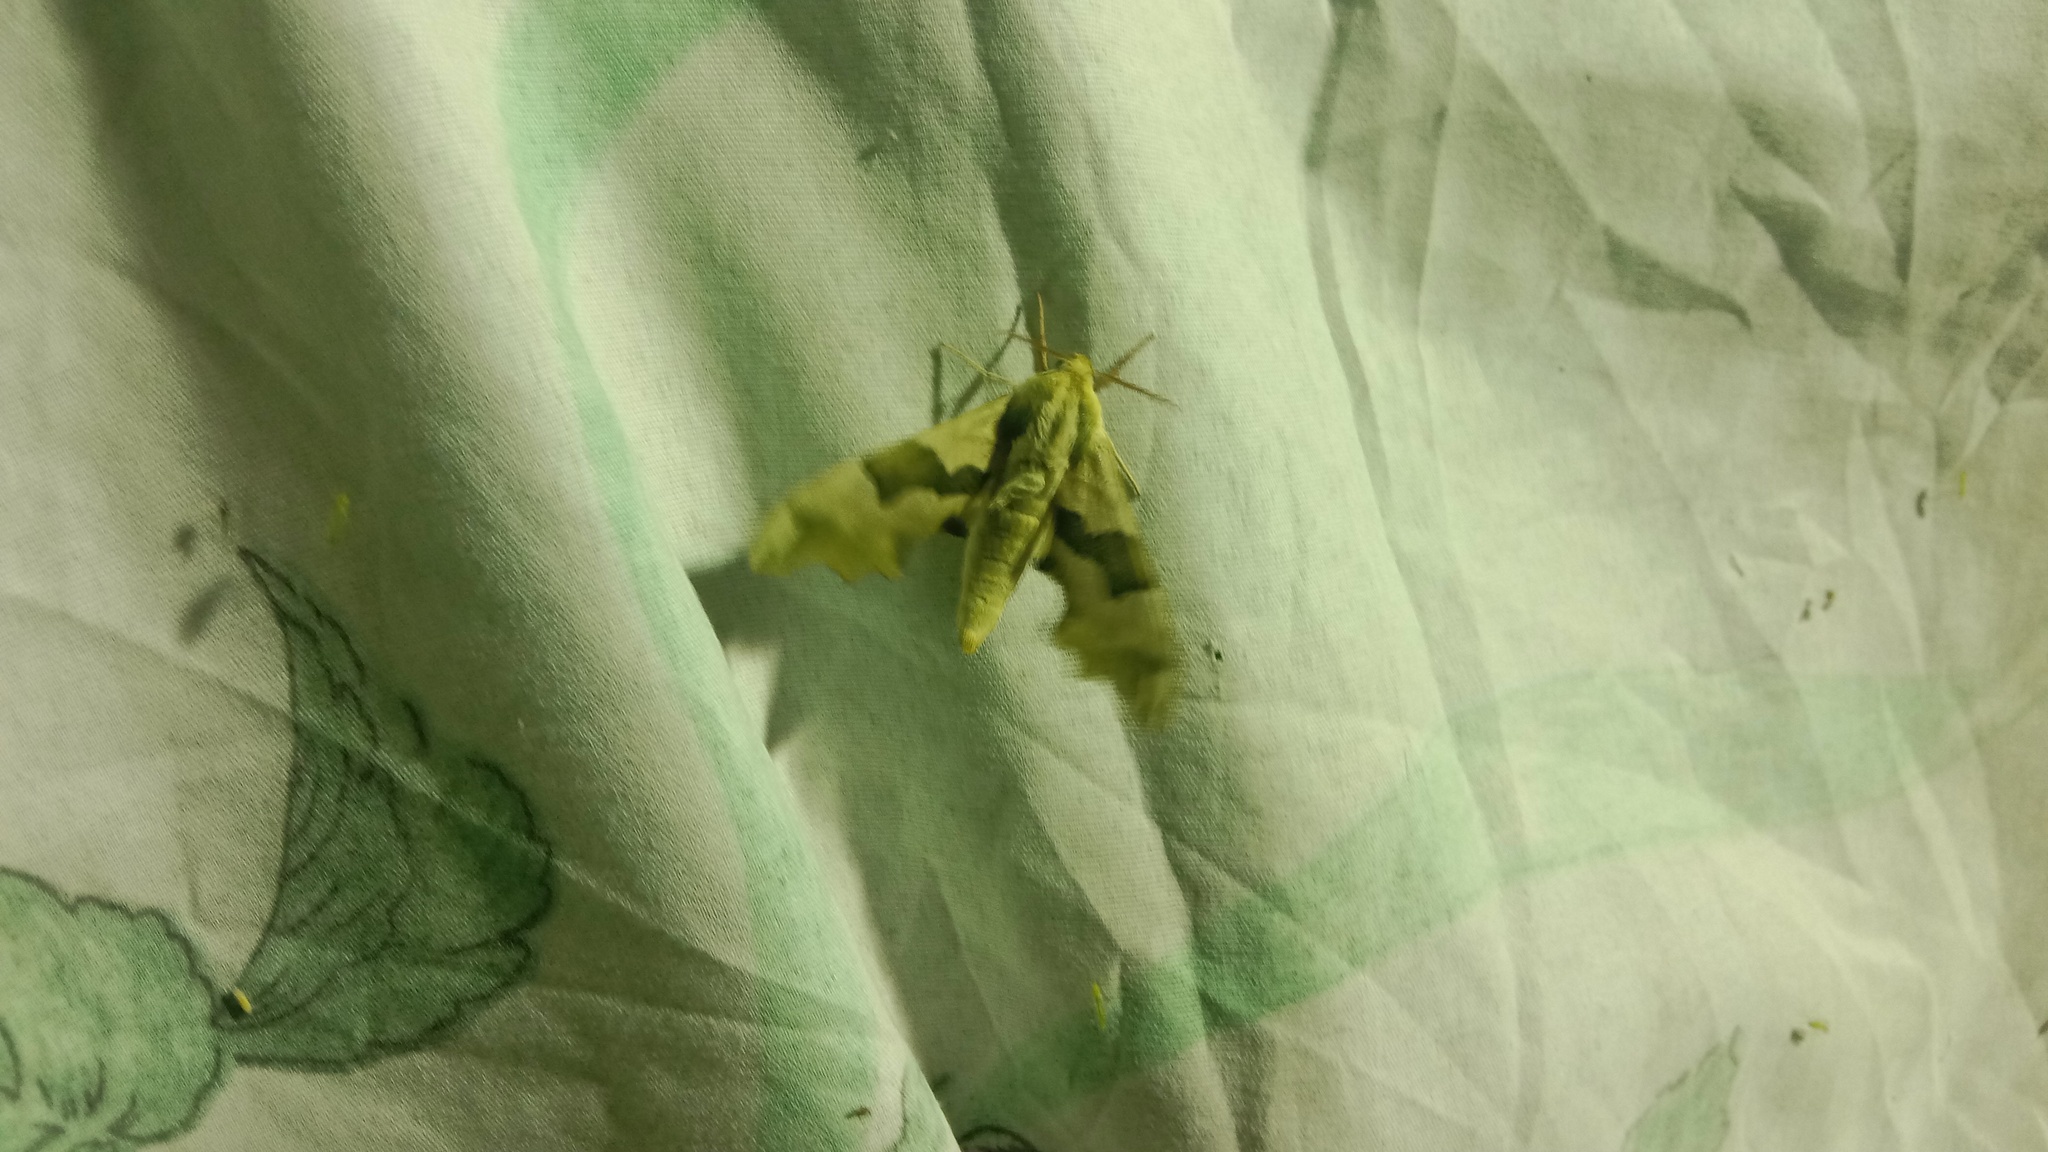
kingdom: Animalia
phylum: Arthropoda
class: Insecta
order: Lepidoptera
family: Sphingidae
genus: Mimas
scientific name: Mimas tiliae
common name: Lime hawk-moth
